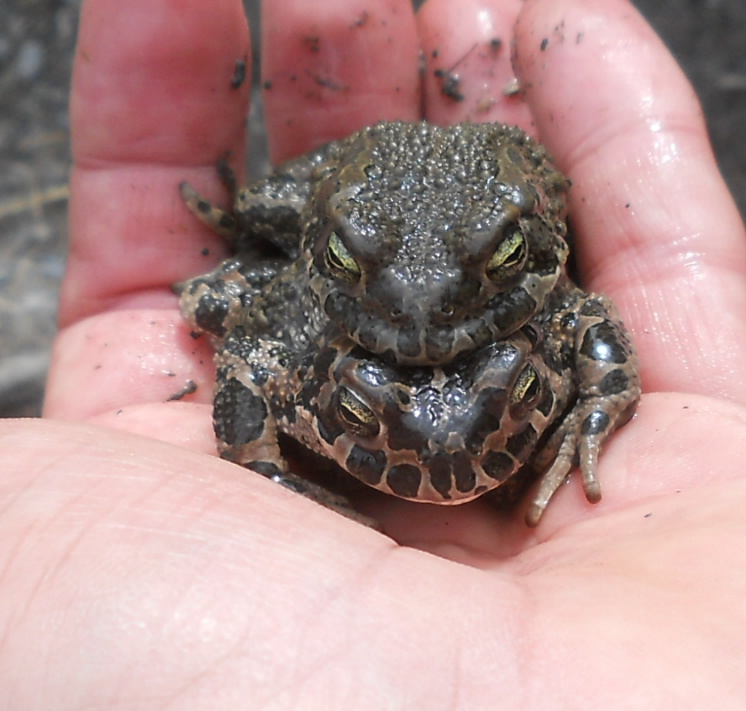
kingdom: Animalia
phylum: Chordata
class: Amphibia
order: Anura
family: Bufonidae
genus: Bufotes
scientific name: Bufotes viridis
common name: European green toad
